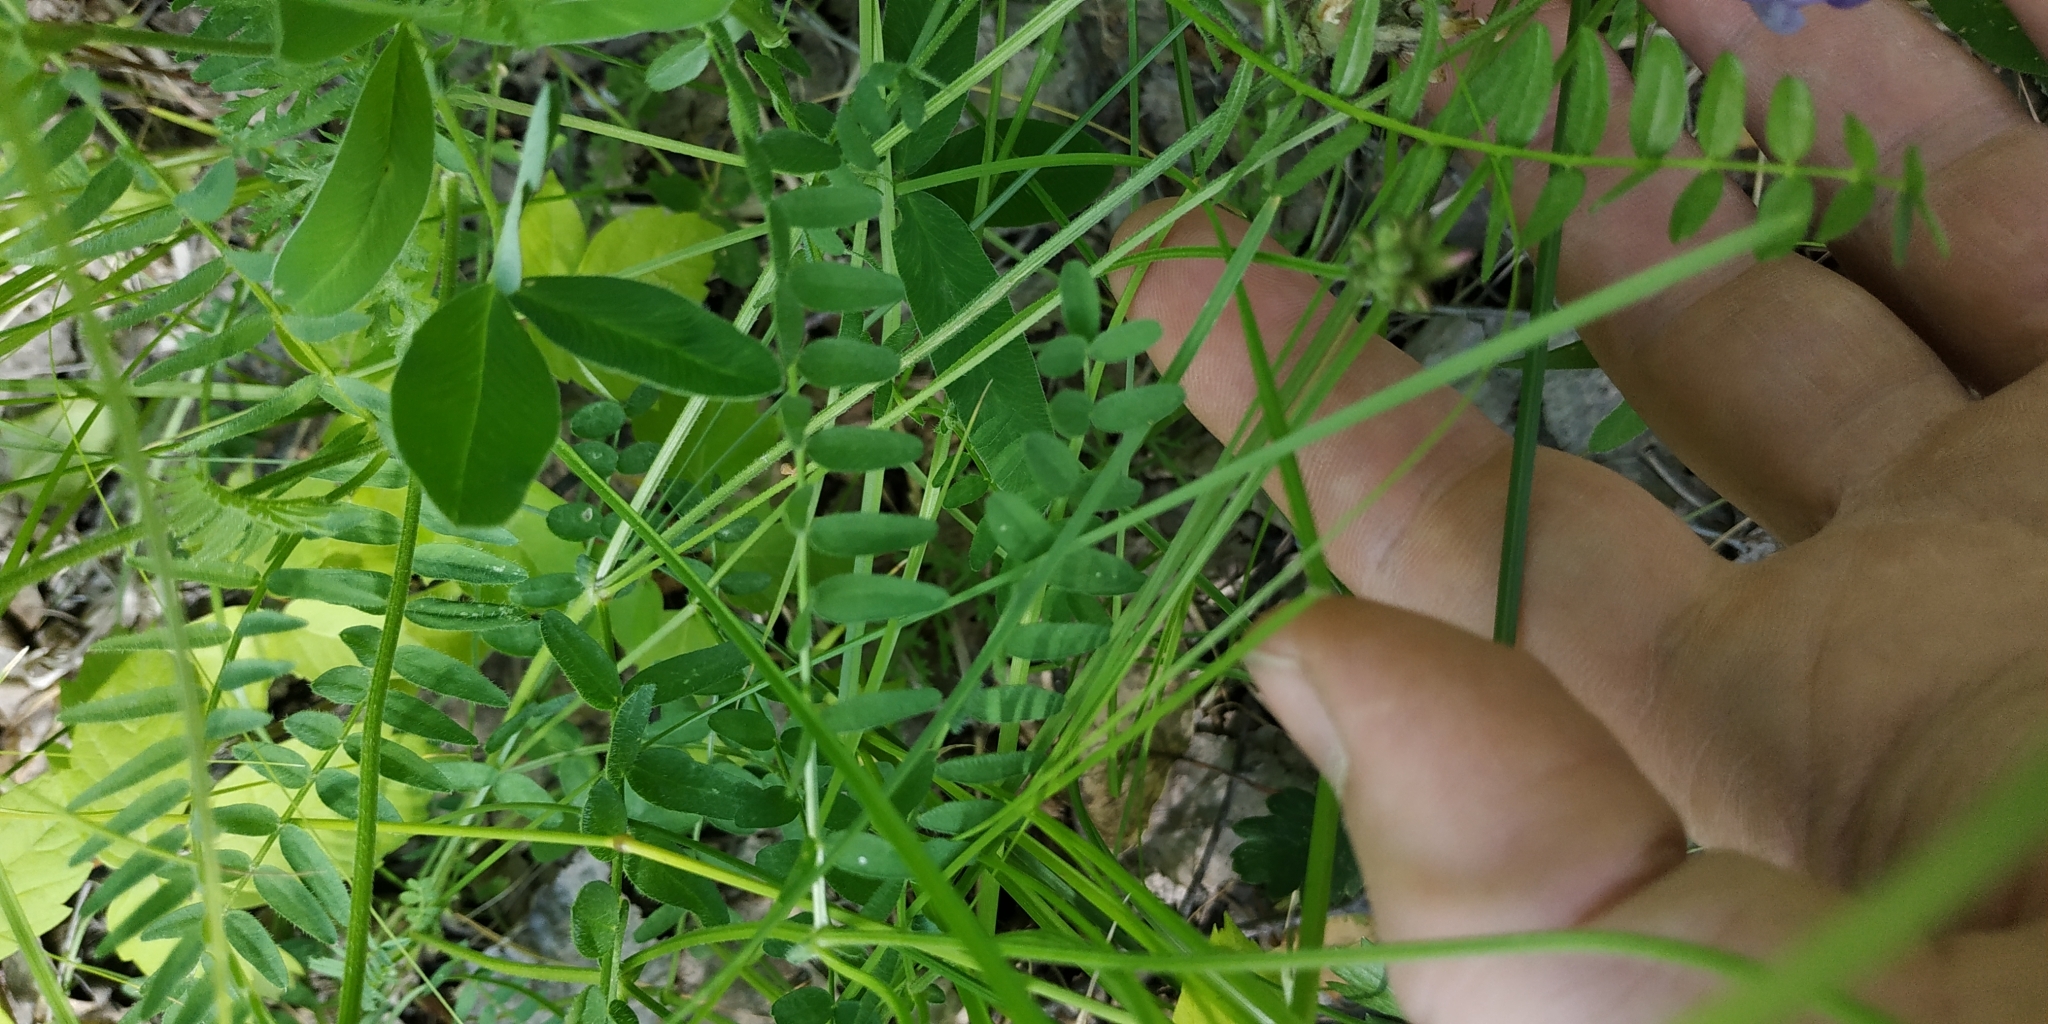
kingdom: Plantae
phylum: Tracheophyta
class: Magnoliopsida
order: Fabales
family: Fabaceae
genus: Astragalus
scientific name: Astragalus danicus
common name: Purple milk-vetch
